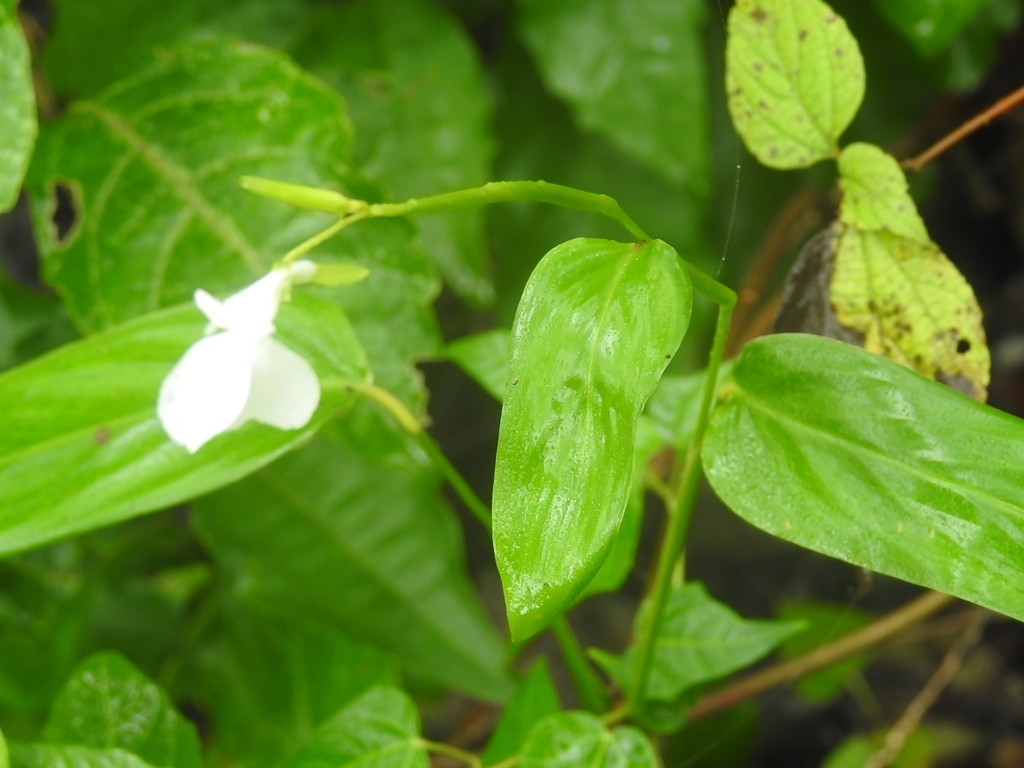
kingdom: Plantae
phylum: Tracheophyta
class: Liliopsida
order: Zingiberales
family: Marantaceae
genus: Maranta
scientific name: Maranta arundinacea
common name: Arrowroot
